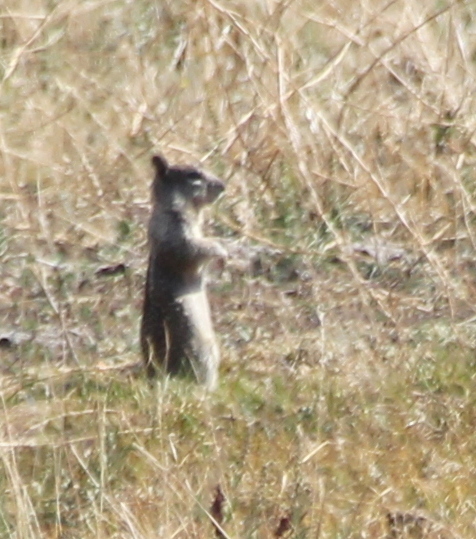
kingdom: Animalia
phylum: Chordata
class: Mammalia
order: Rodentia
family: Sciuridae
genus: Otospermophilus
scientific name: Otospermophilus beecheyi
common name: California ground squirrel
